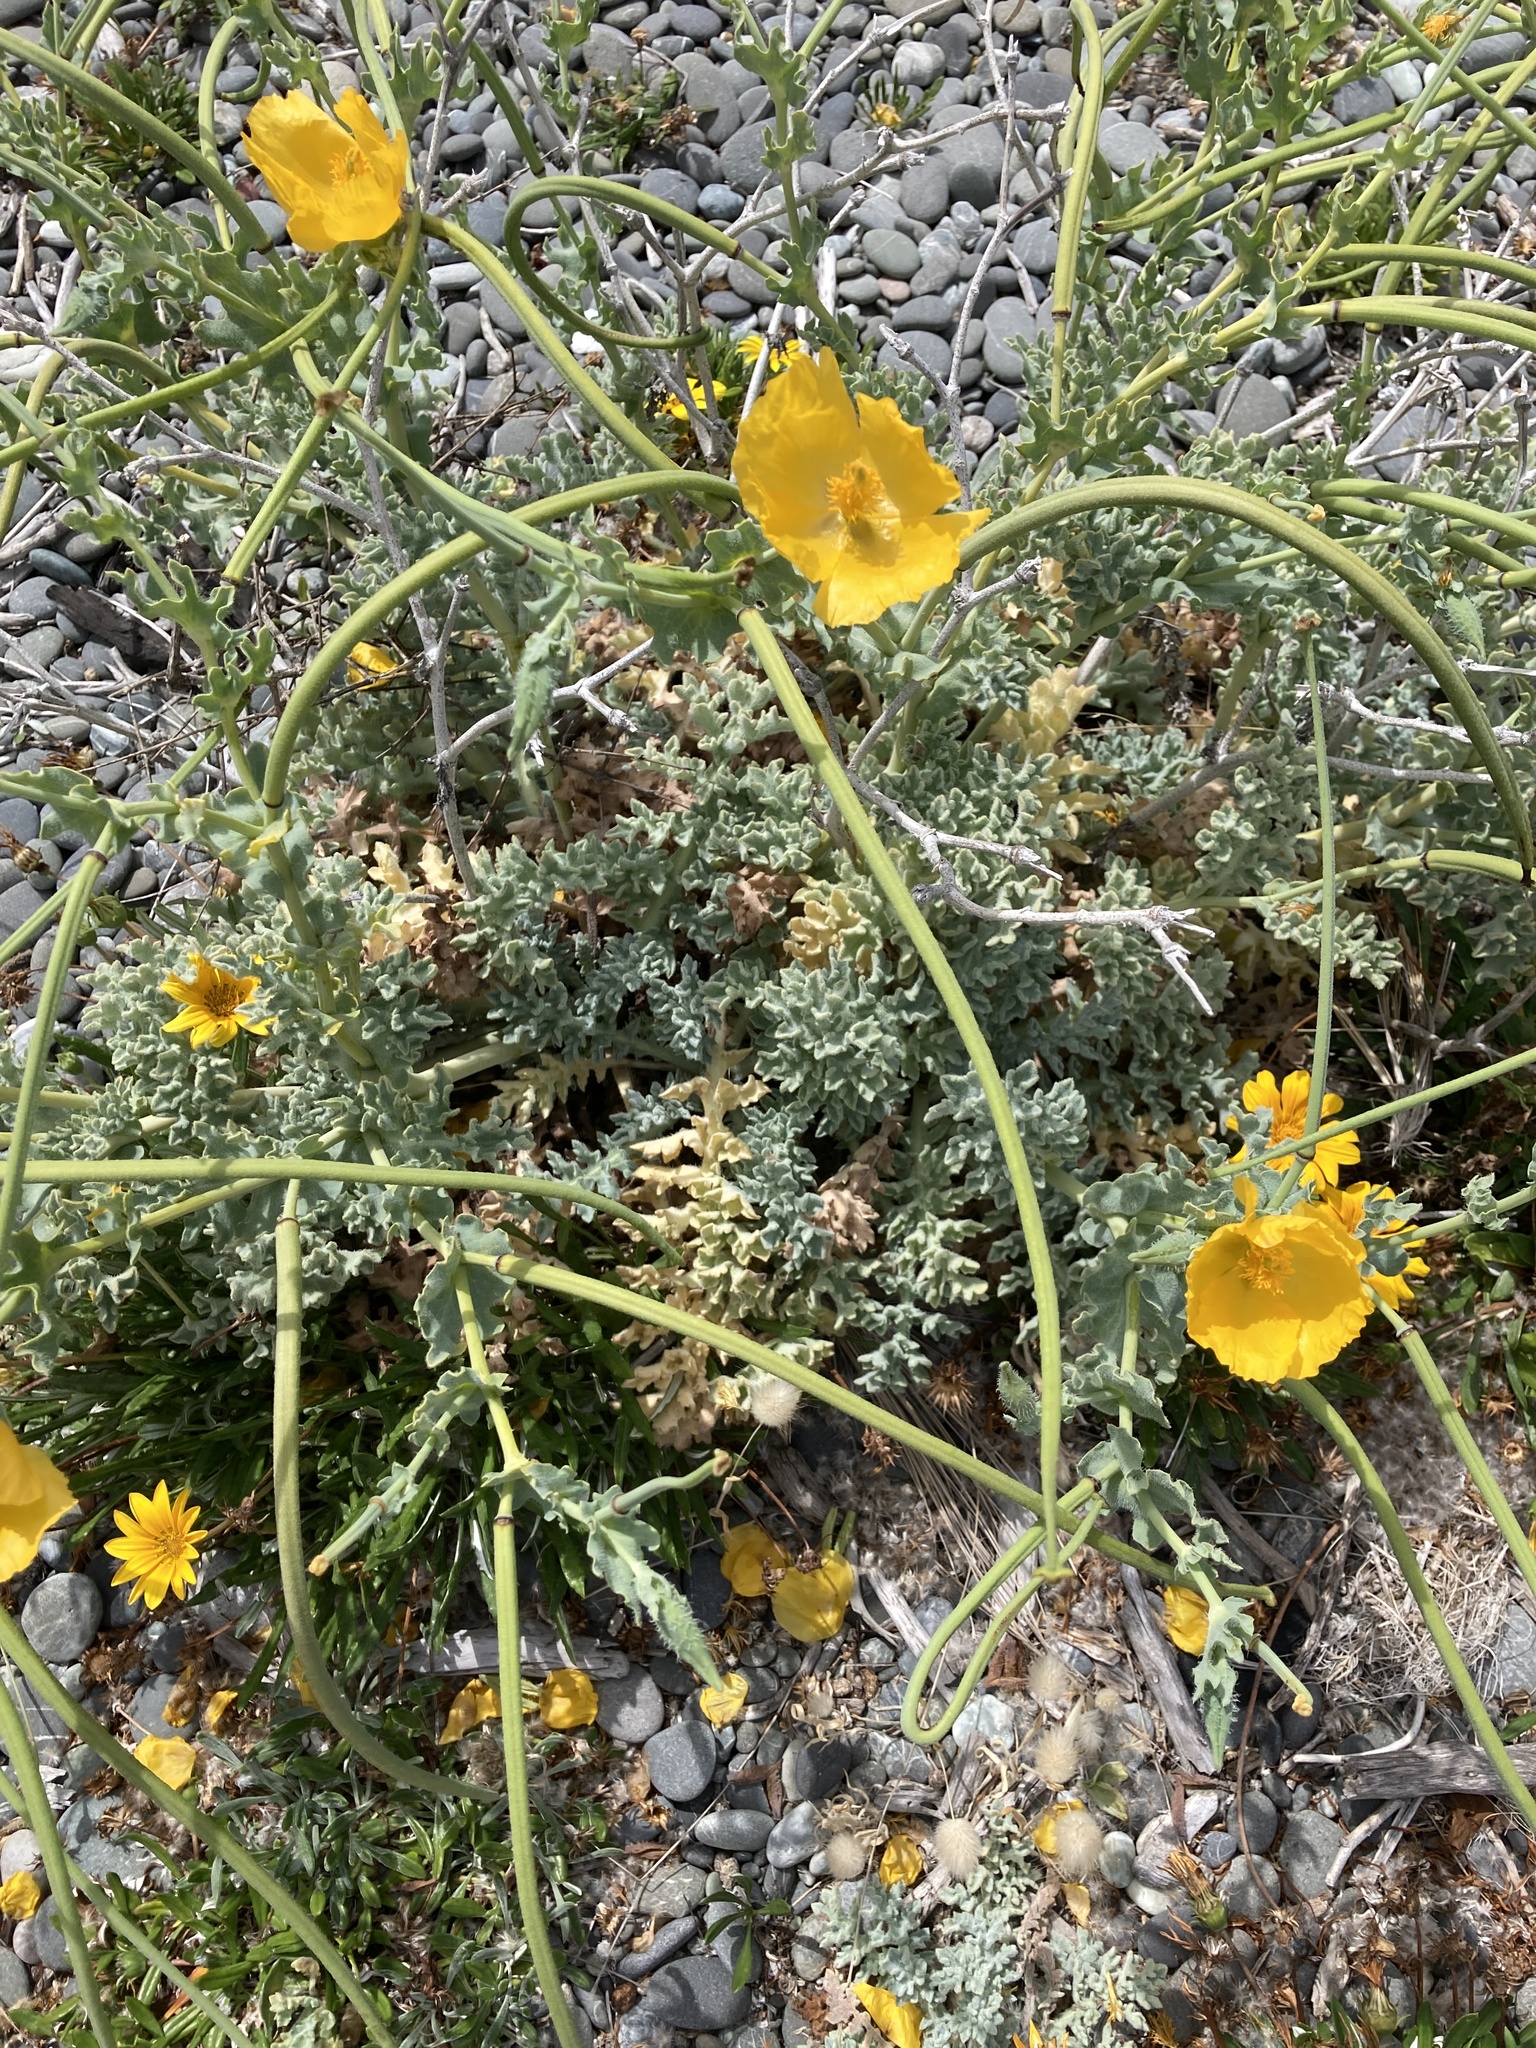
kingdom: Plantae
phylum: Tracheophyta
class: Magnoliopsida
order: Ranunculales
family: Papaveraceae
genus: Glaucium
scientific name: Glaucium flavum
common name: Yellow horned-poppy
